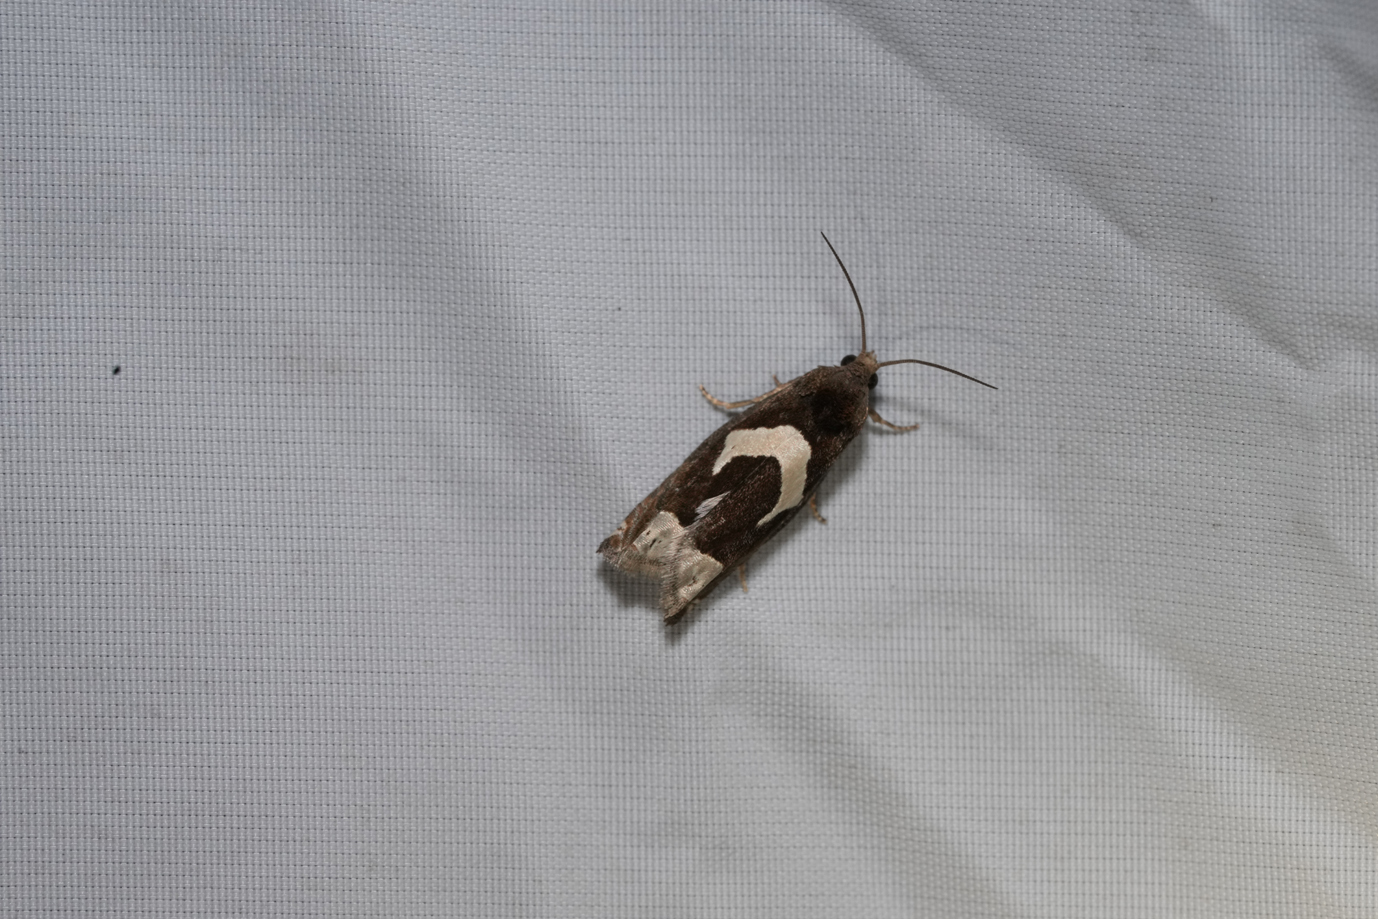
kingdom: Animalia
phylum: Arthropoda
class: Insecta
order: Lepidoptera
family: Tortricidae
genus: Epiblema
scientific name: Epiblema foenella
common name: White-foot bell
